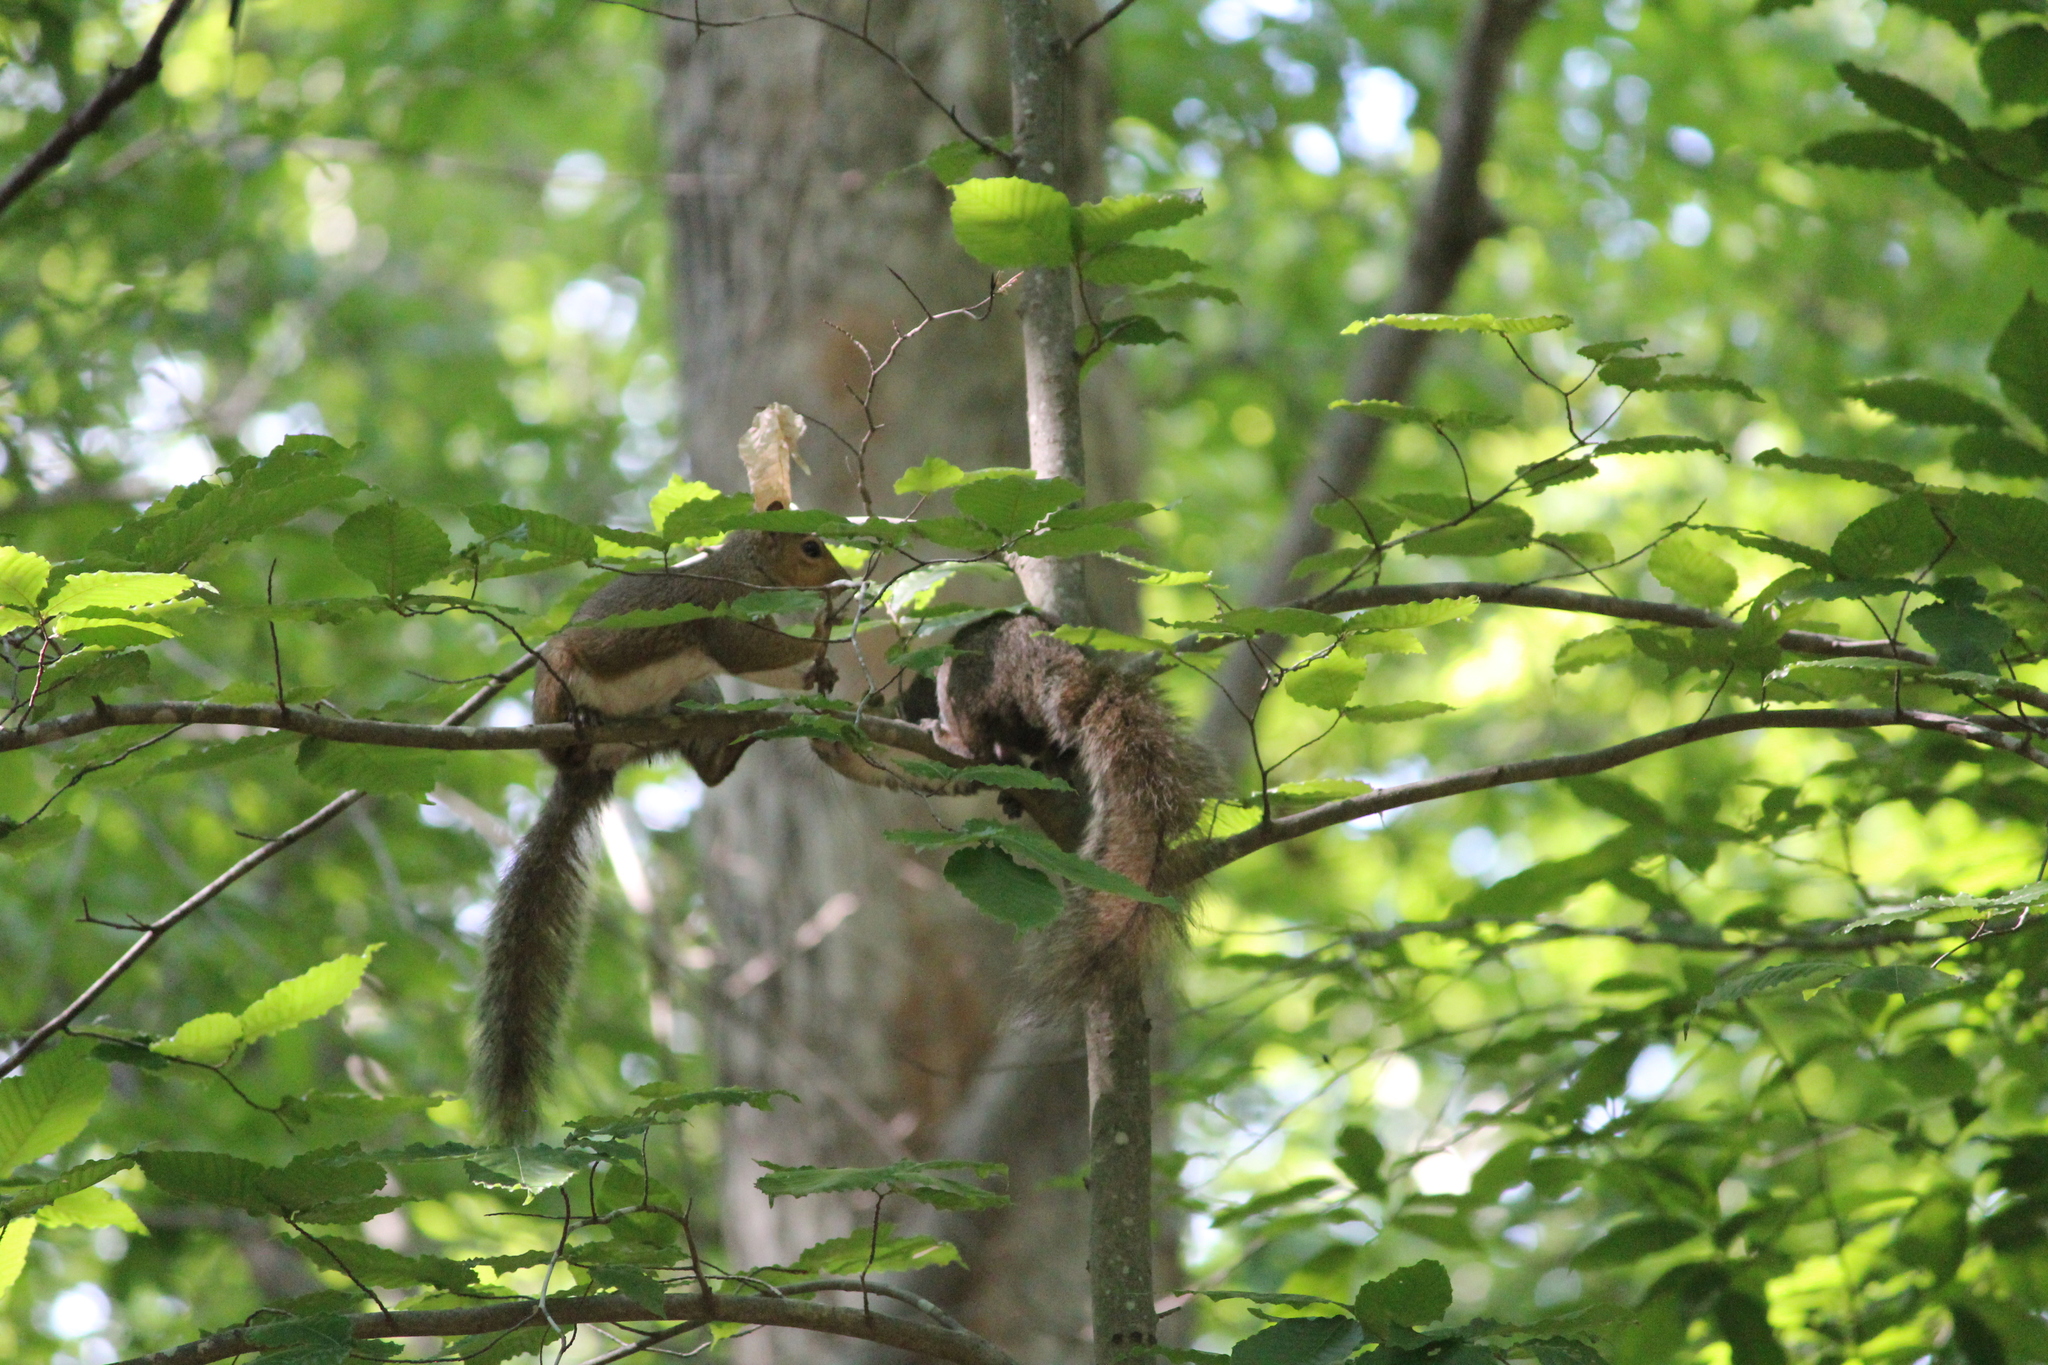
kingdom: Animalia
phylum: Chordata
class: Mammalia
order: Rodentia
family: Sciuridae
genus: Sciurus
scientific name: Sciurus carolinensis
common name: Eastern gray squirrel
